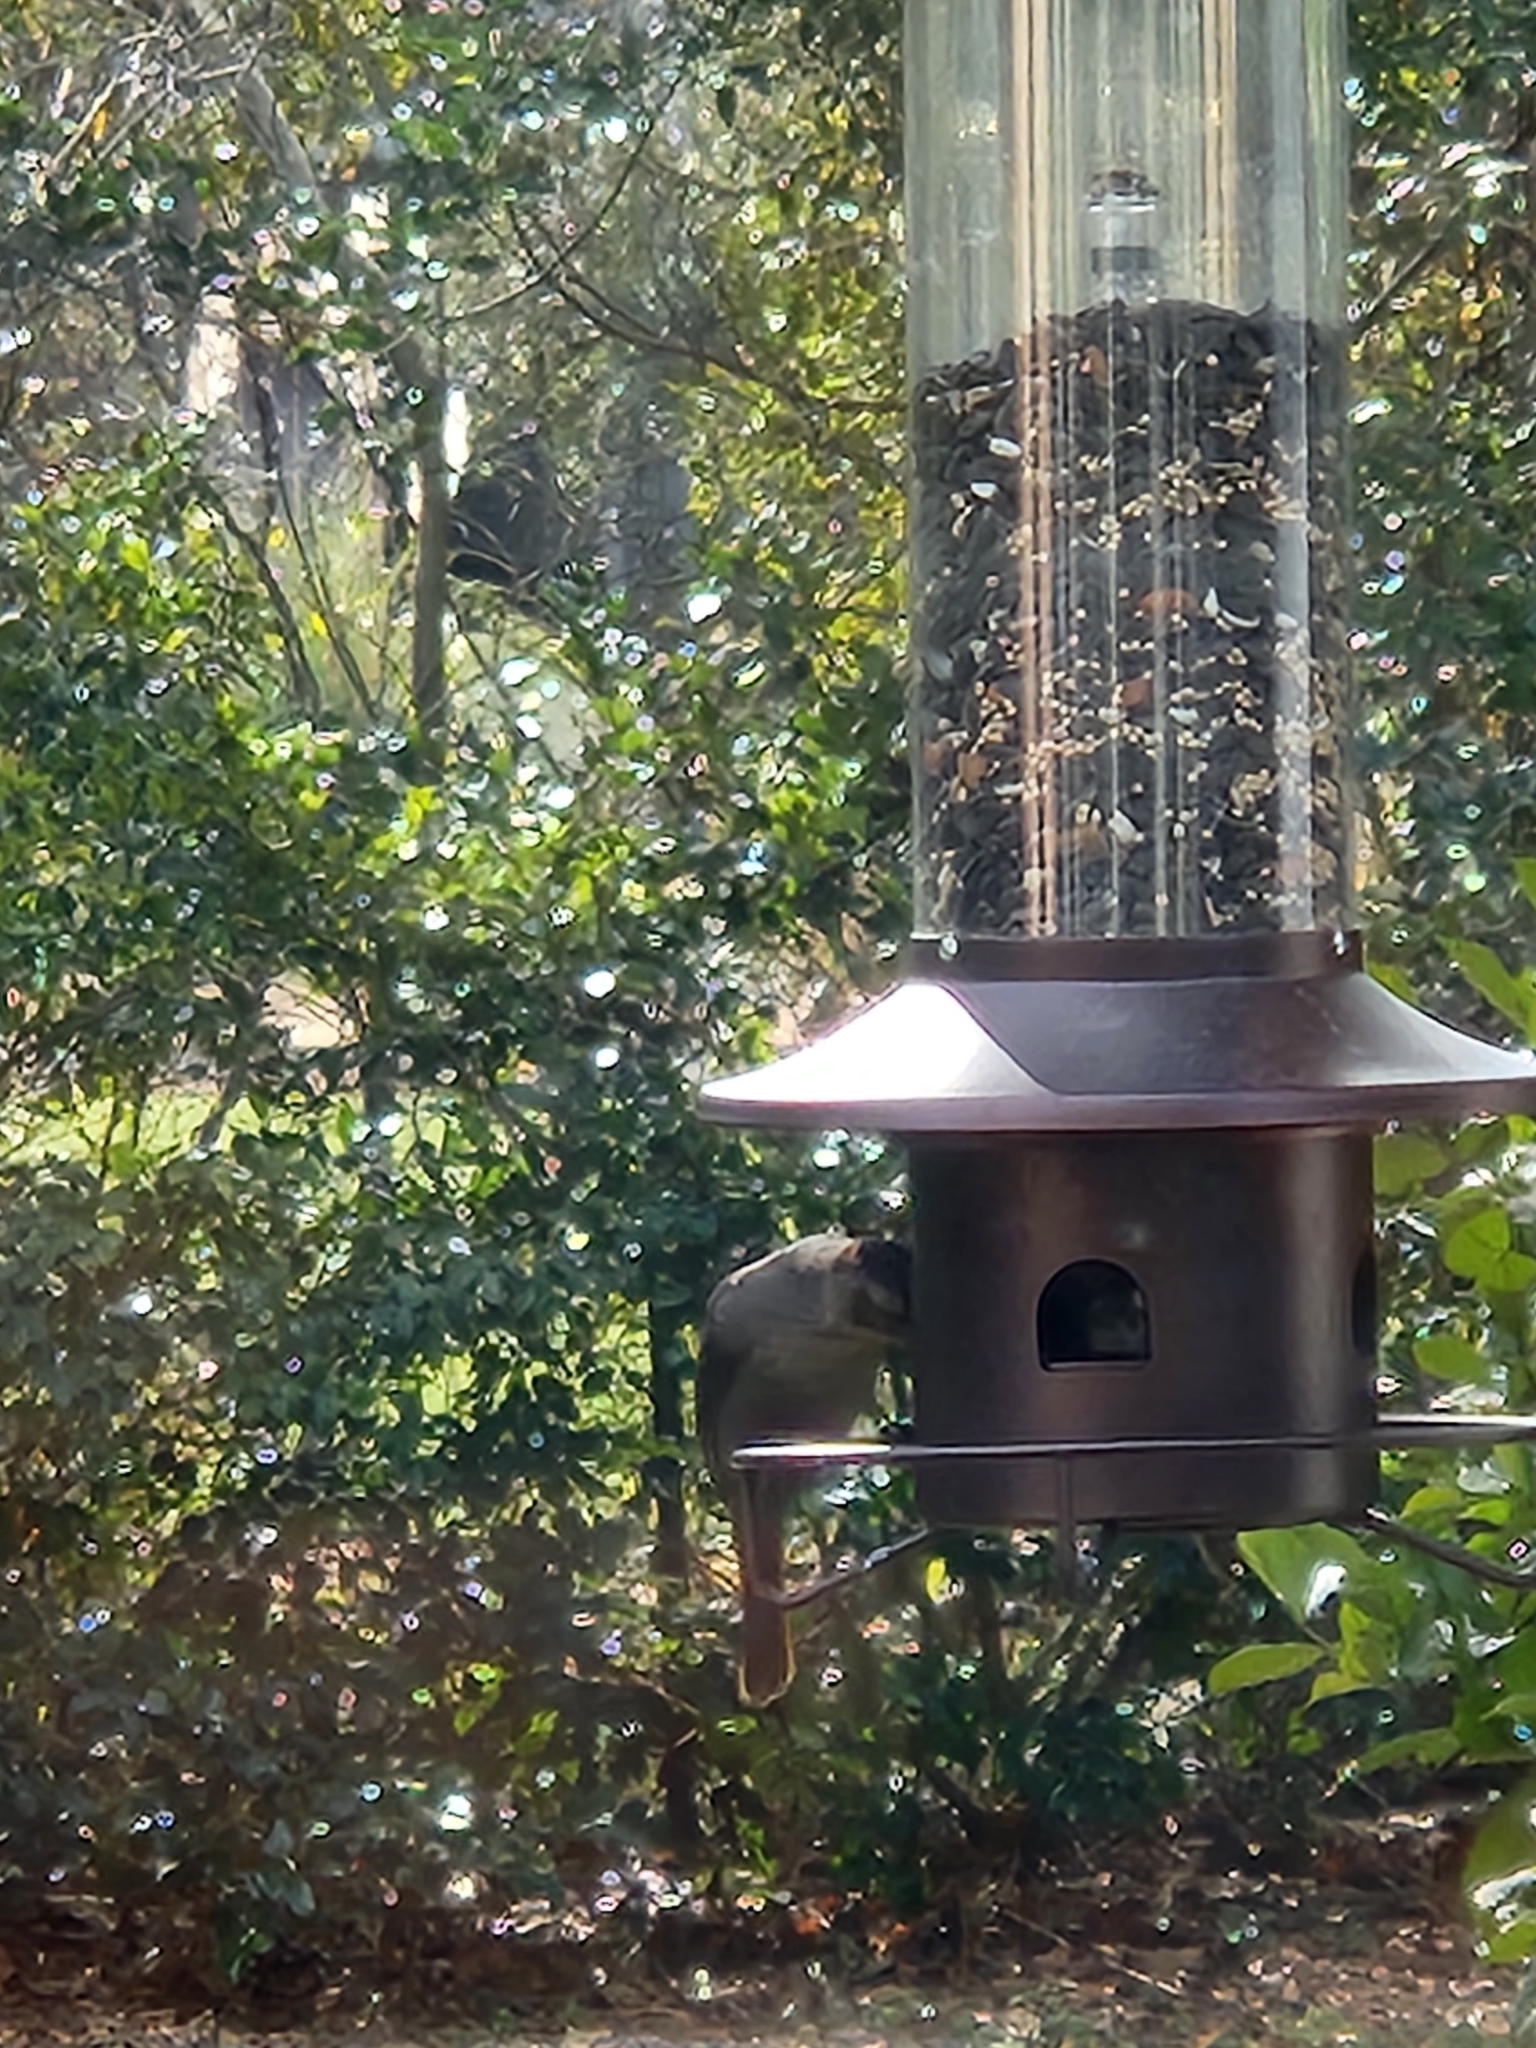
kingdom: Animalia
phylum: Chordata
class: Aves
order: Passeriformes
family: Icteridae
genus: Molothrus
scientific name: Molothrus ater
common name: Brown-headed cowbird
